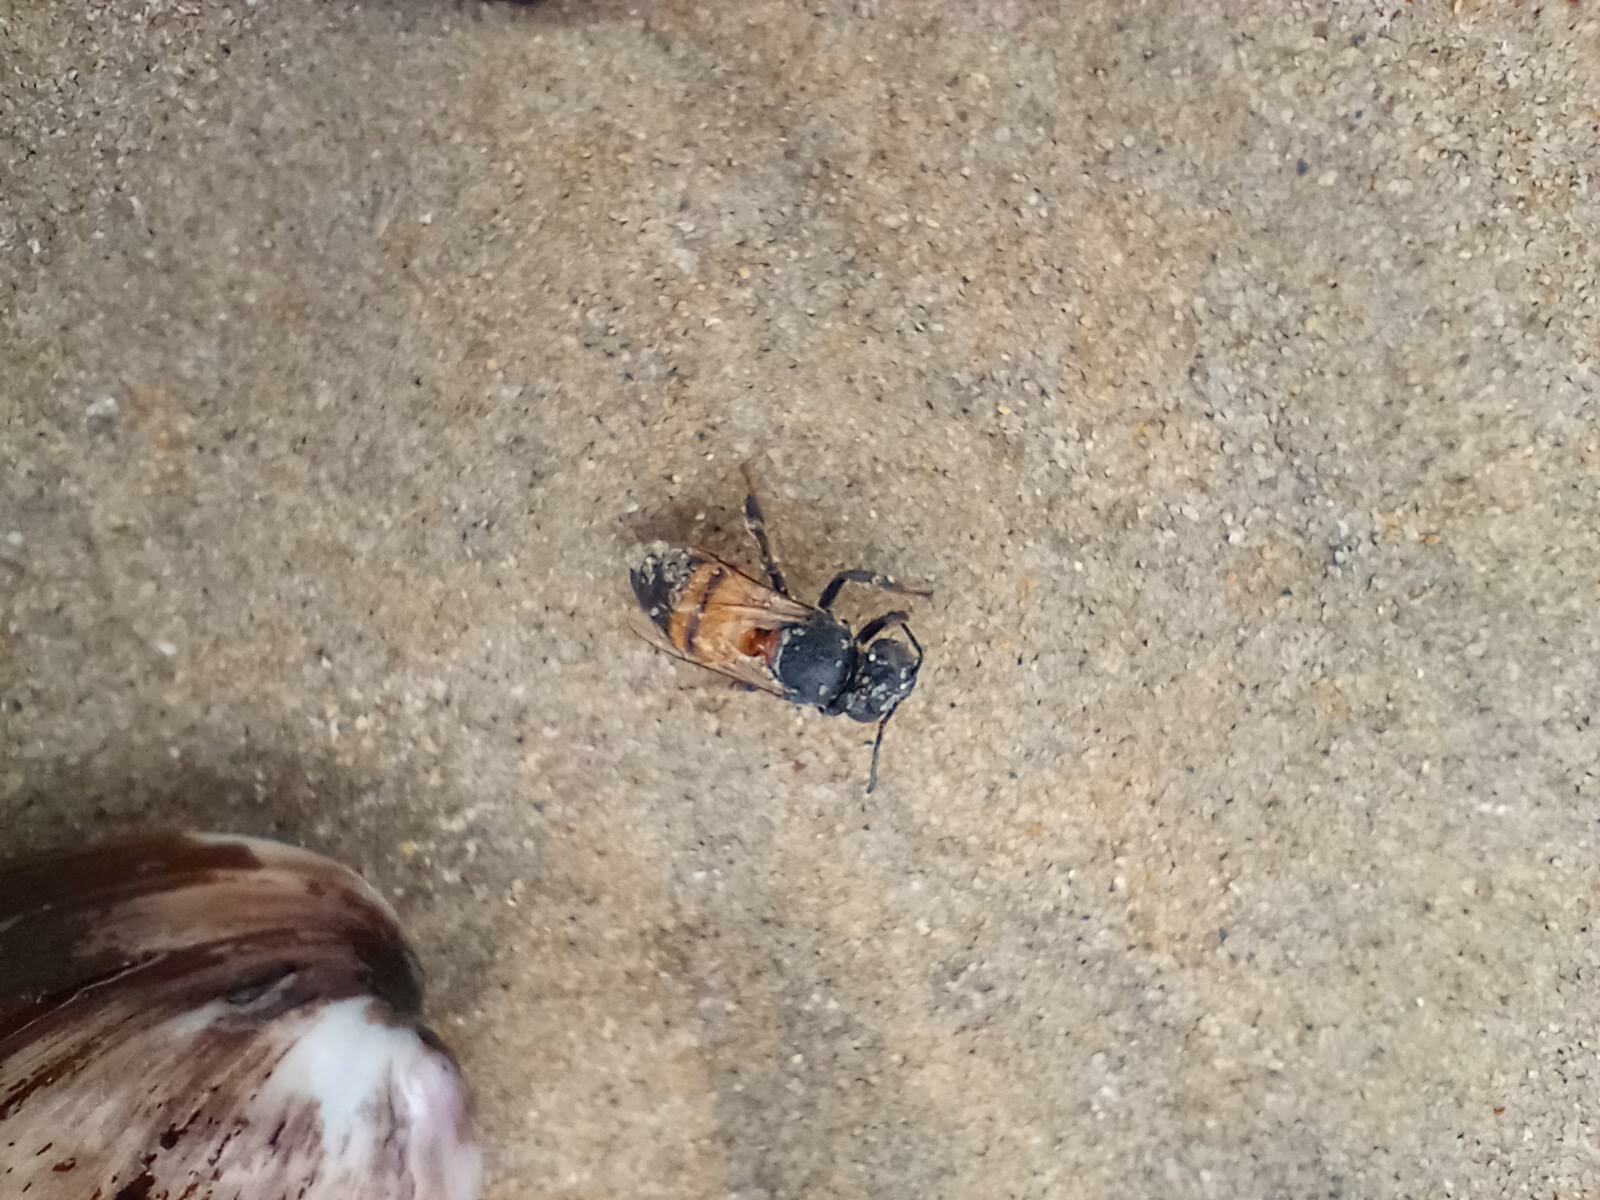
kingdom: Animalia
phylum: Arthropoda
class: Insecta
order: Hymenoptera
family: Apidae
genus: Apis
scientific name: Apis mellifera
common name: Honey bee
